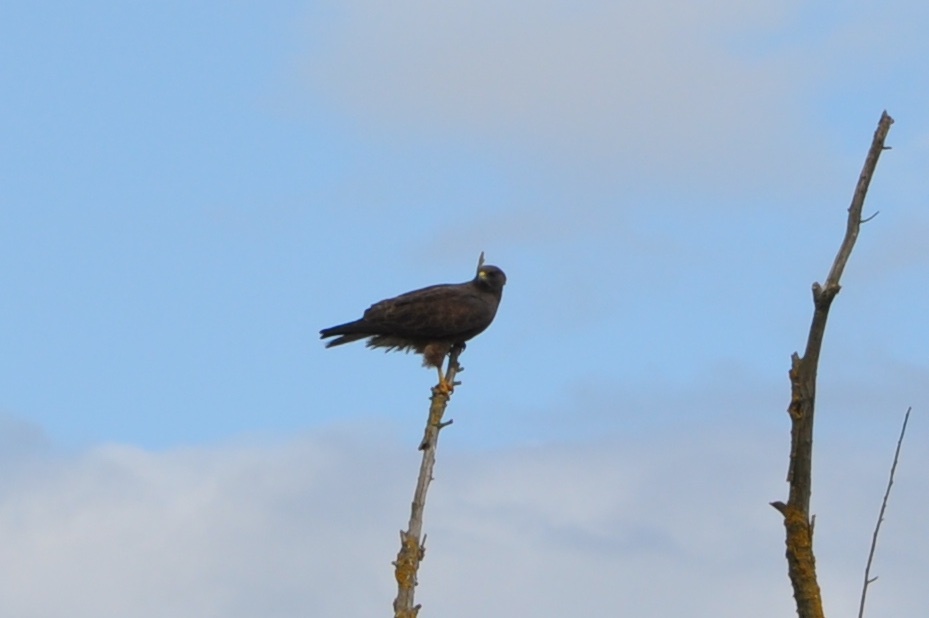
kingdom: Animalia
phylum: Chordata
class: Aves
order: Accipitriformes
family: Accipitridae
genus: Buteo
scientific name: Buteo swainsoni
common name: Swainson's hawk
